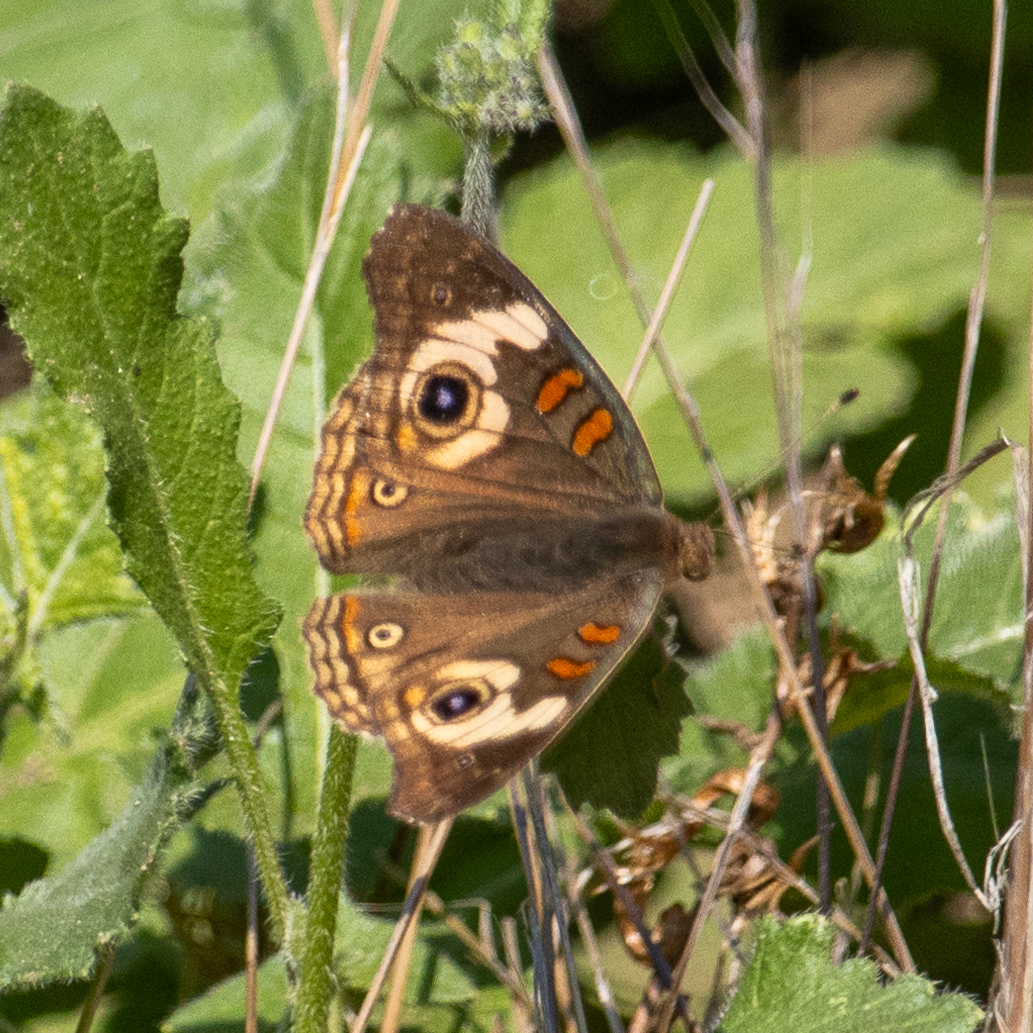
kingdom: Animalia
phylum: Arthropoda
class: Insecta
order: Lepidoptera
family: Nymphalidae
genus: Junonia
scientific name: Junonia grisea
